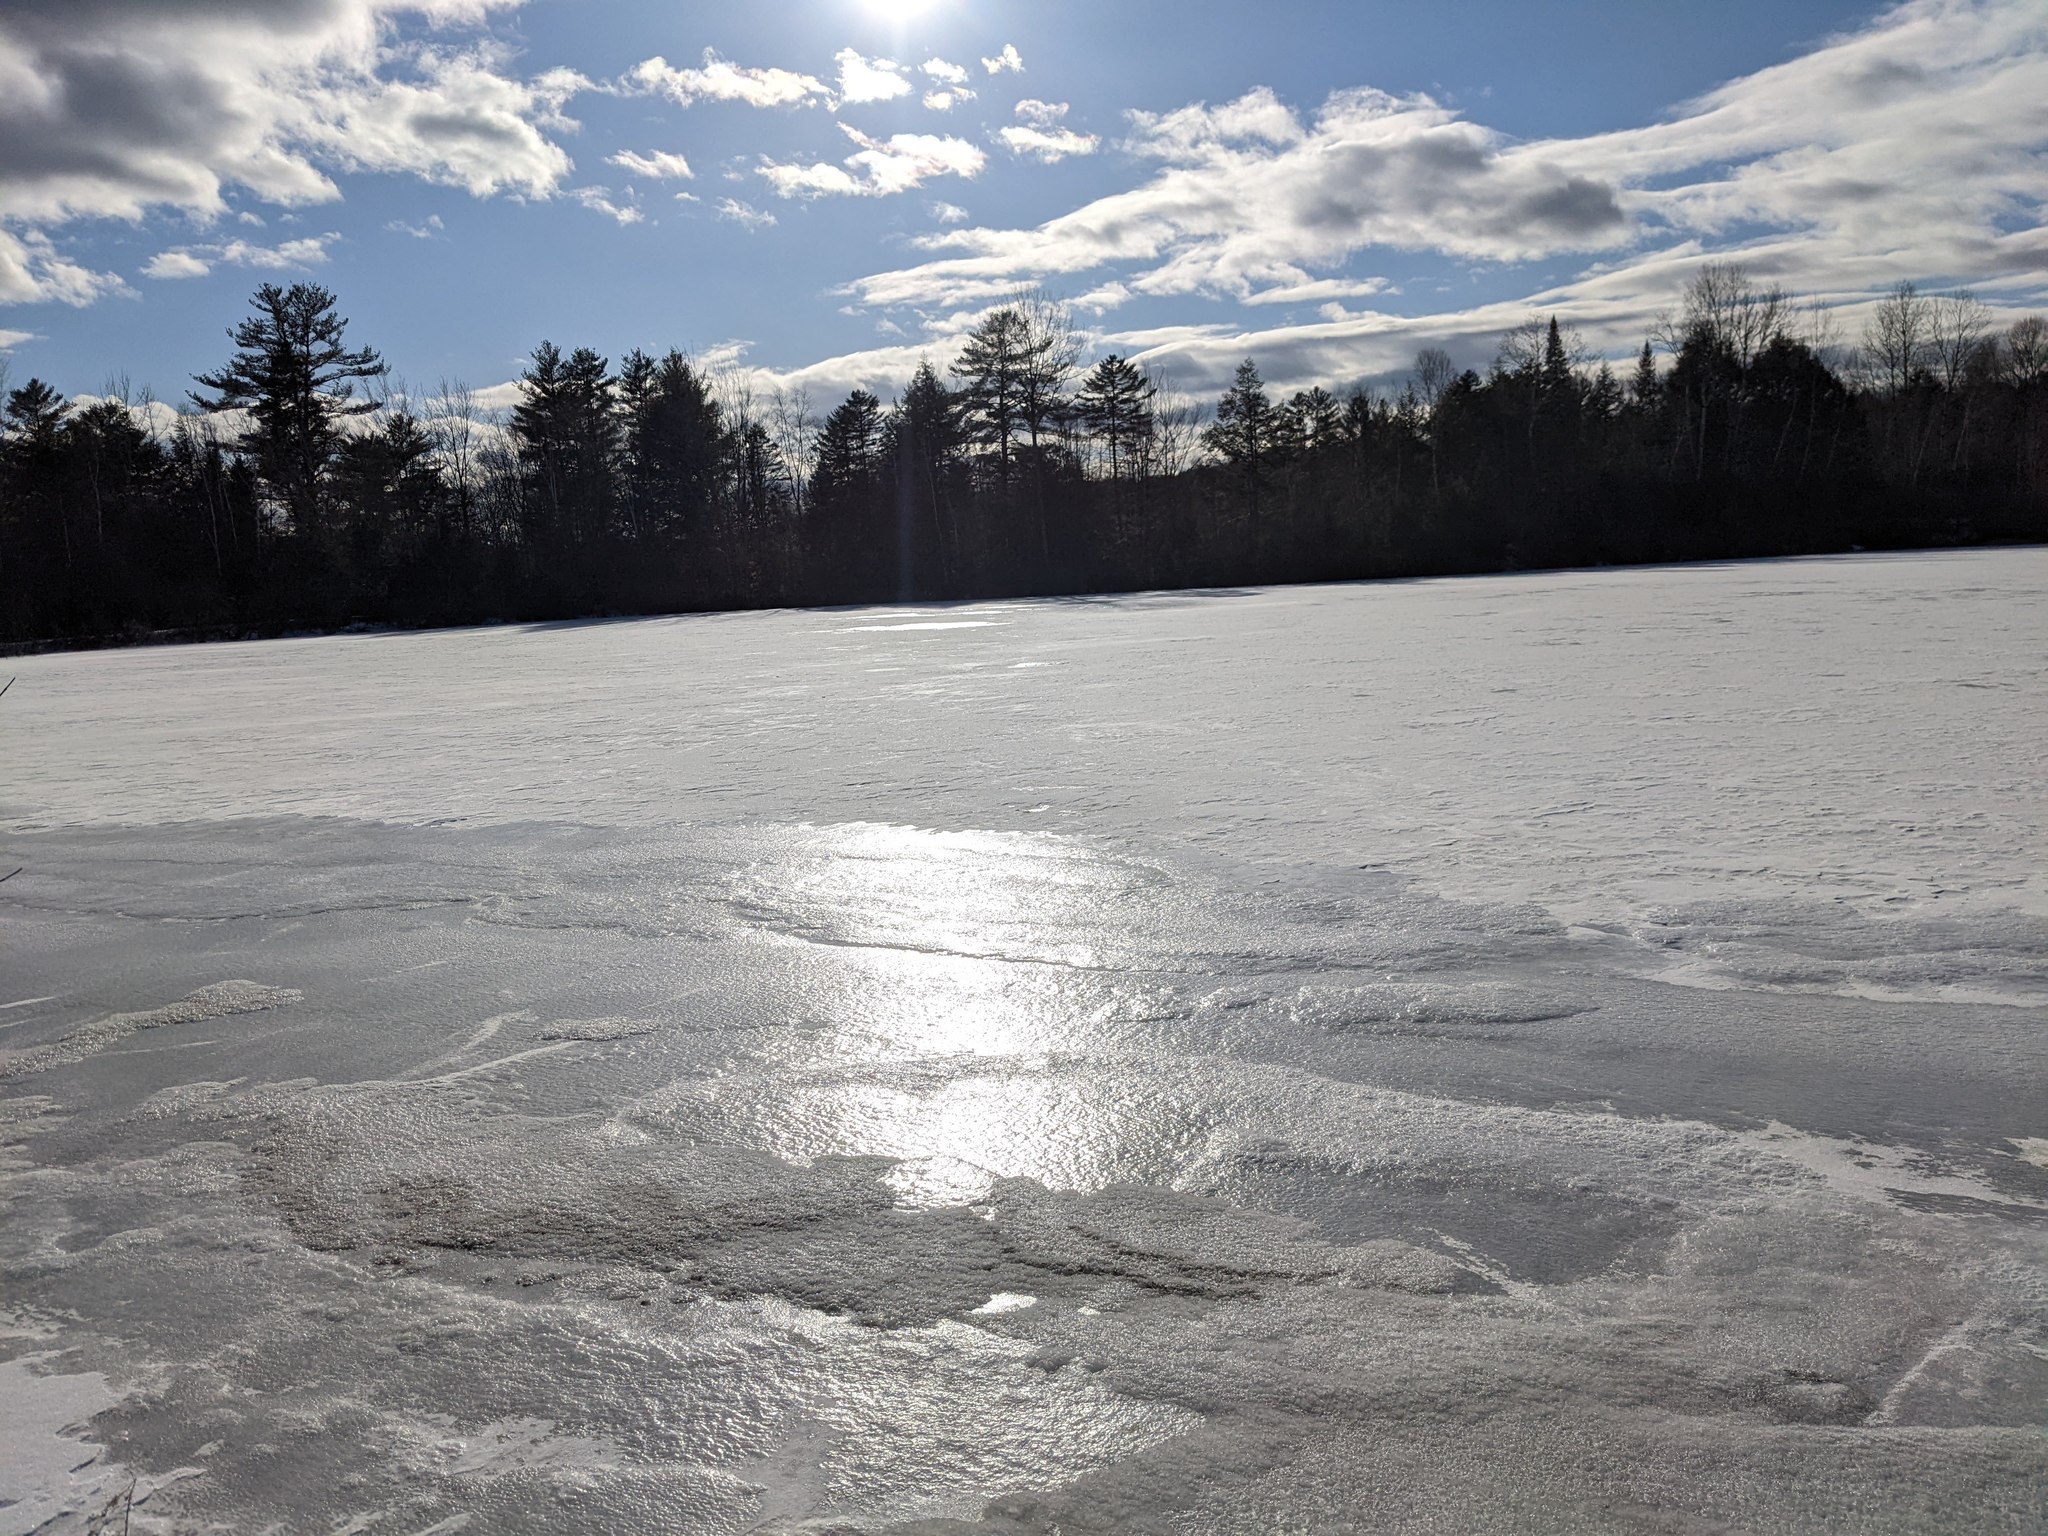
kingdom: Plantae
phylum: Tracheophyta
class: Pinopsida
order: Pinales
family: Pinaceae
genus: Pinus
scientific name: Pinus strobus
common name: Weymouth pine
